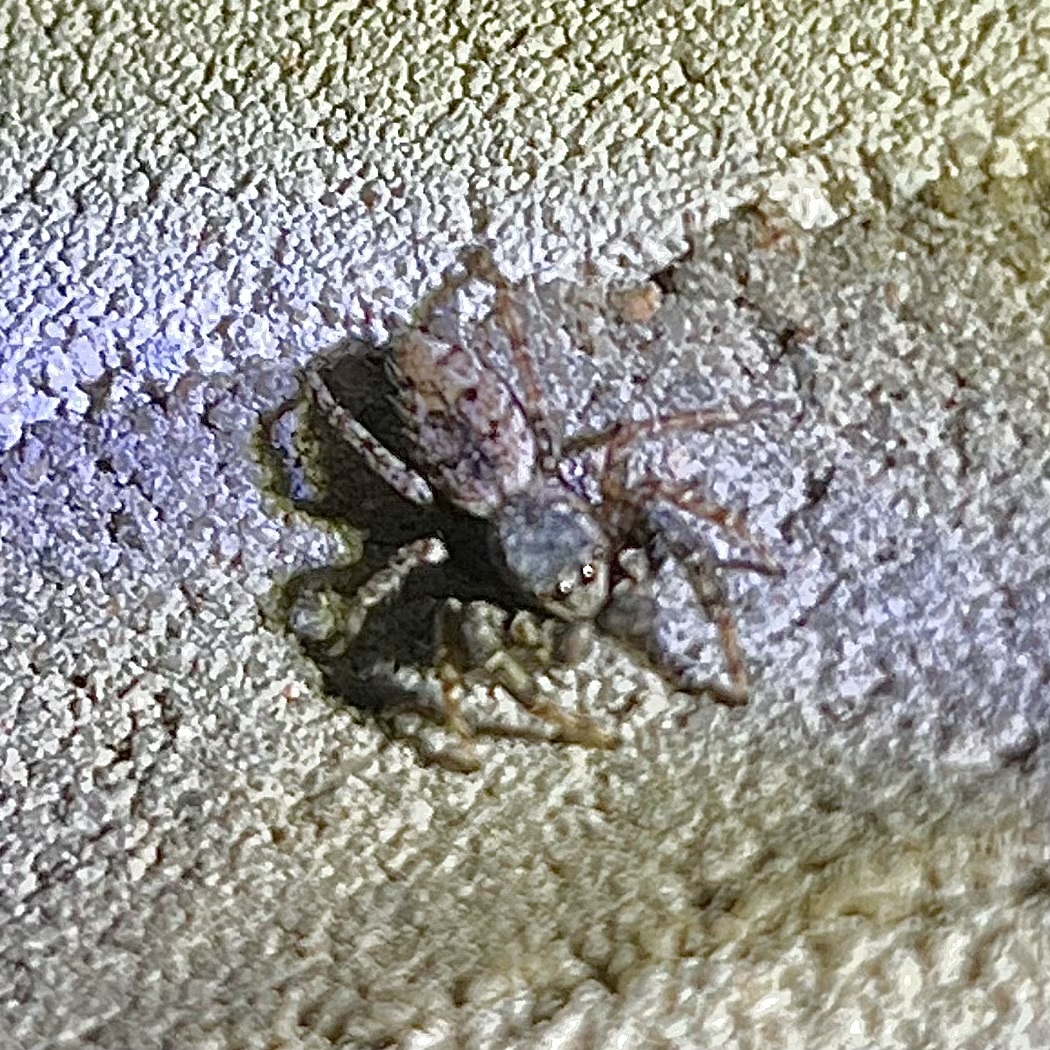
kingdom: Animalia
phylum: Arthropoda
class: Arachnida
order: Araneae
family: Salticidae
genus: Marpissa
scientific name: Marpissa muscosa
